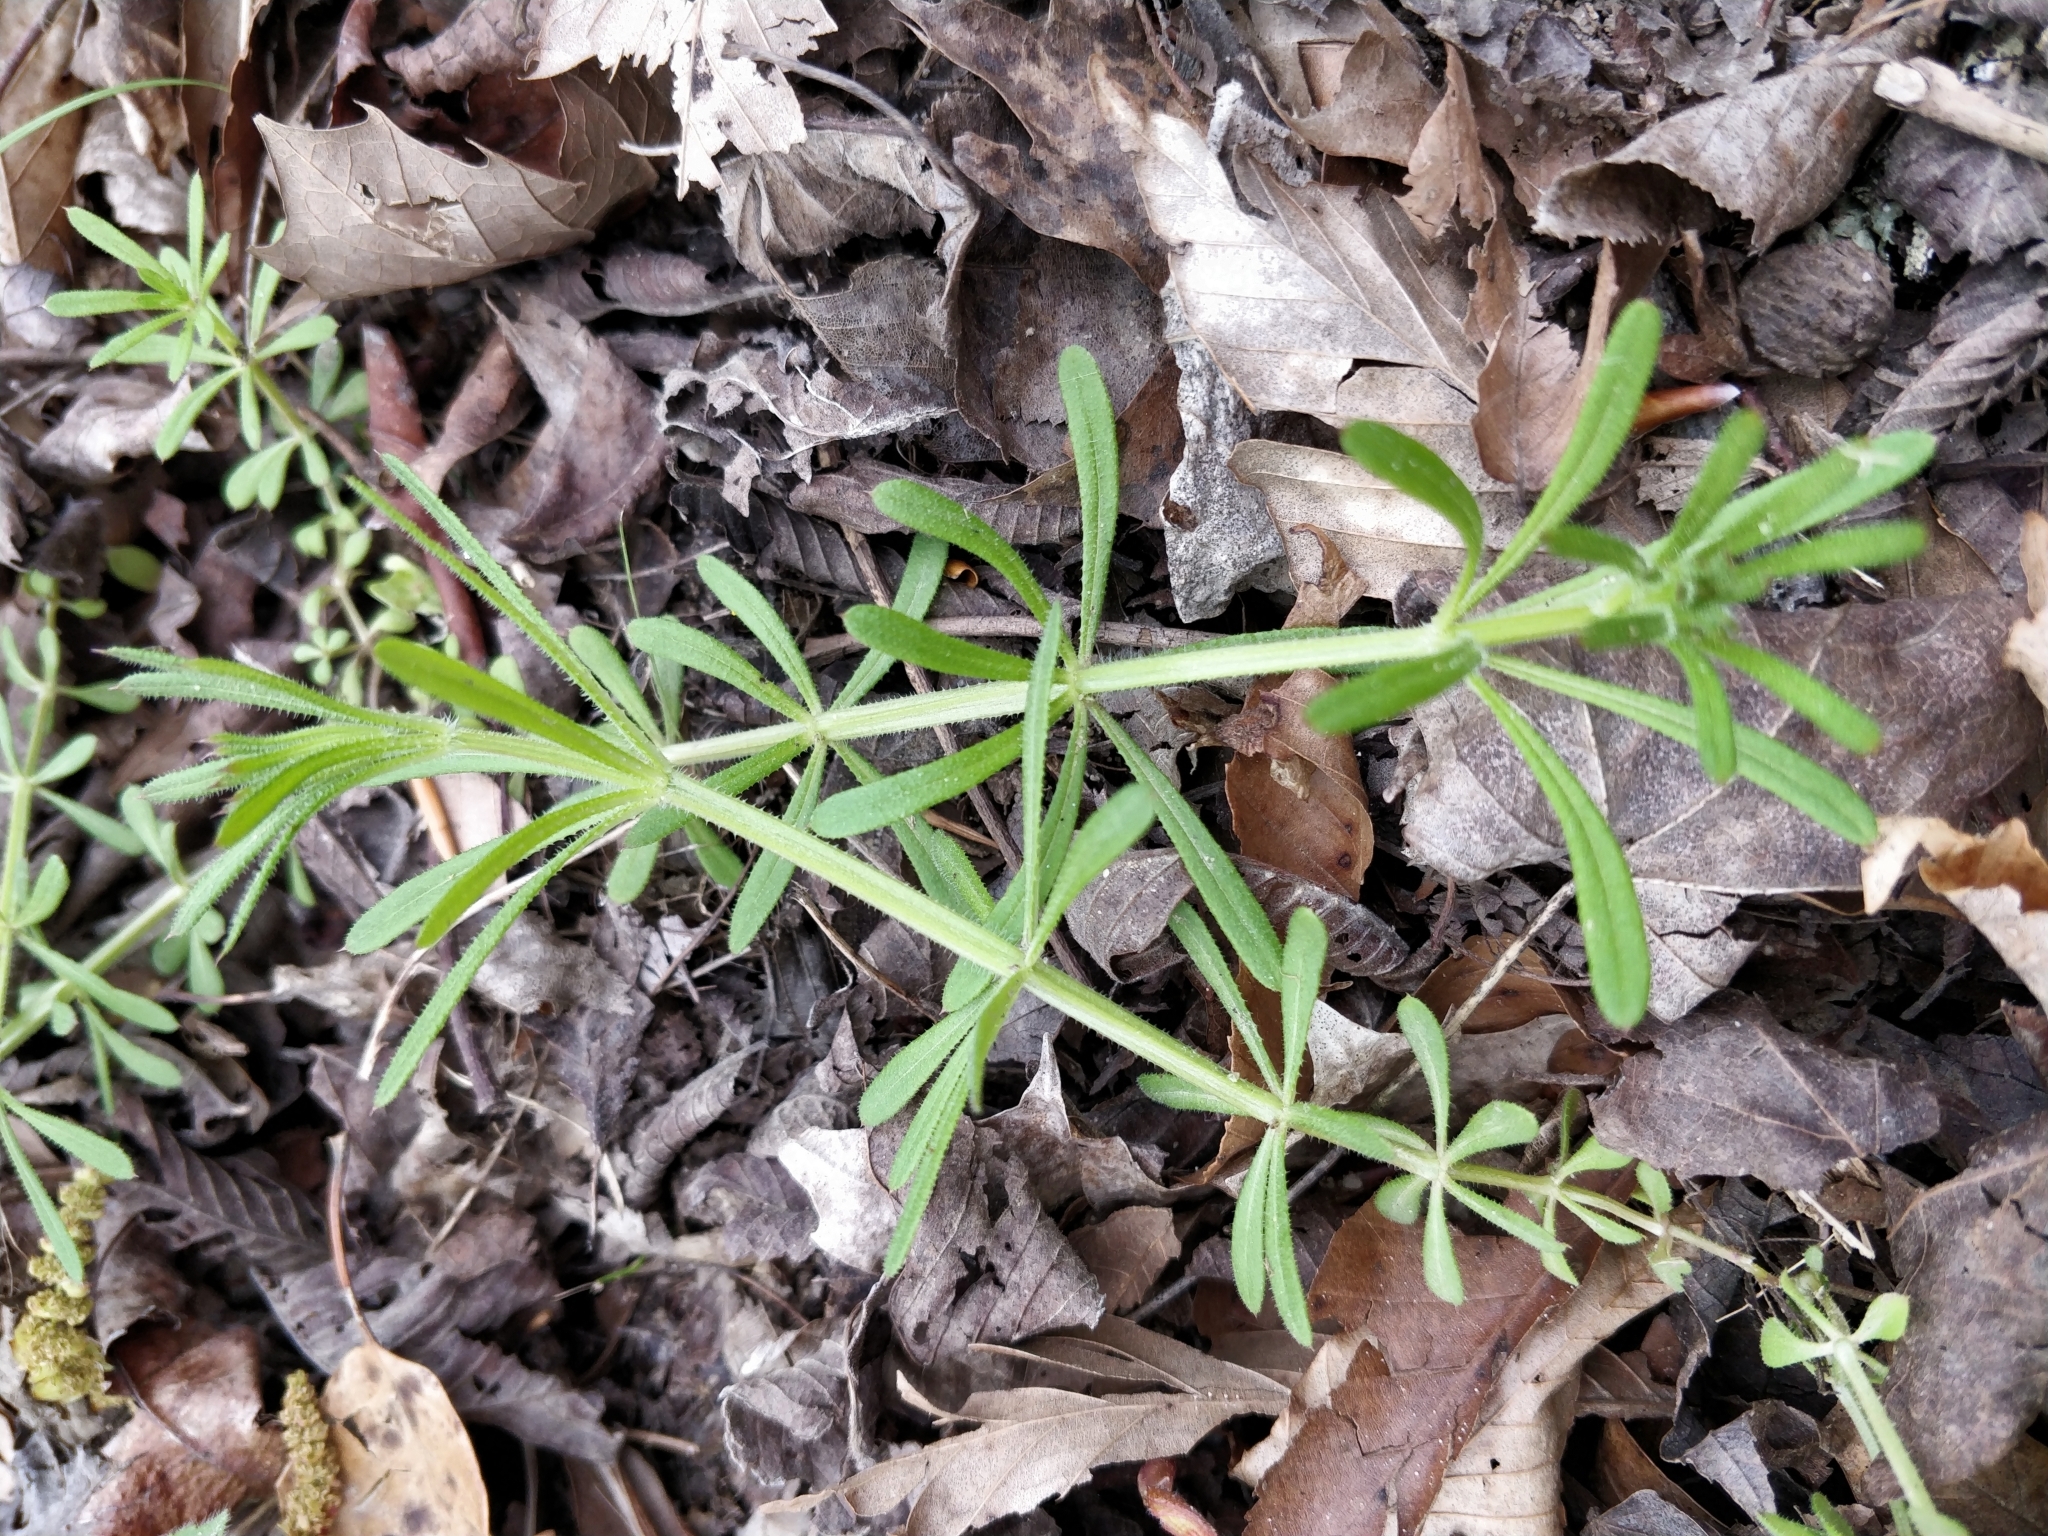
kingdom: Plantae
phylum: Tracheophyta
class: Magnoliopsida
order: Gentianales
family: Rubiaceae
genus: Galium
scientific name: Galium aparine
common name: Cleavers
